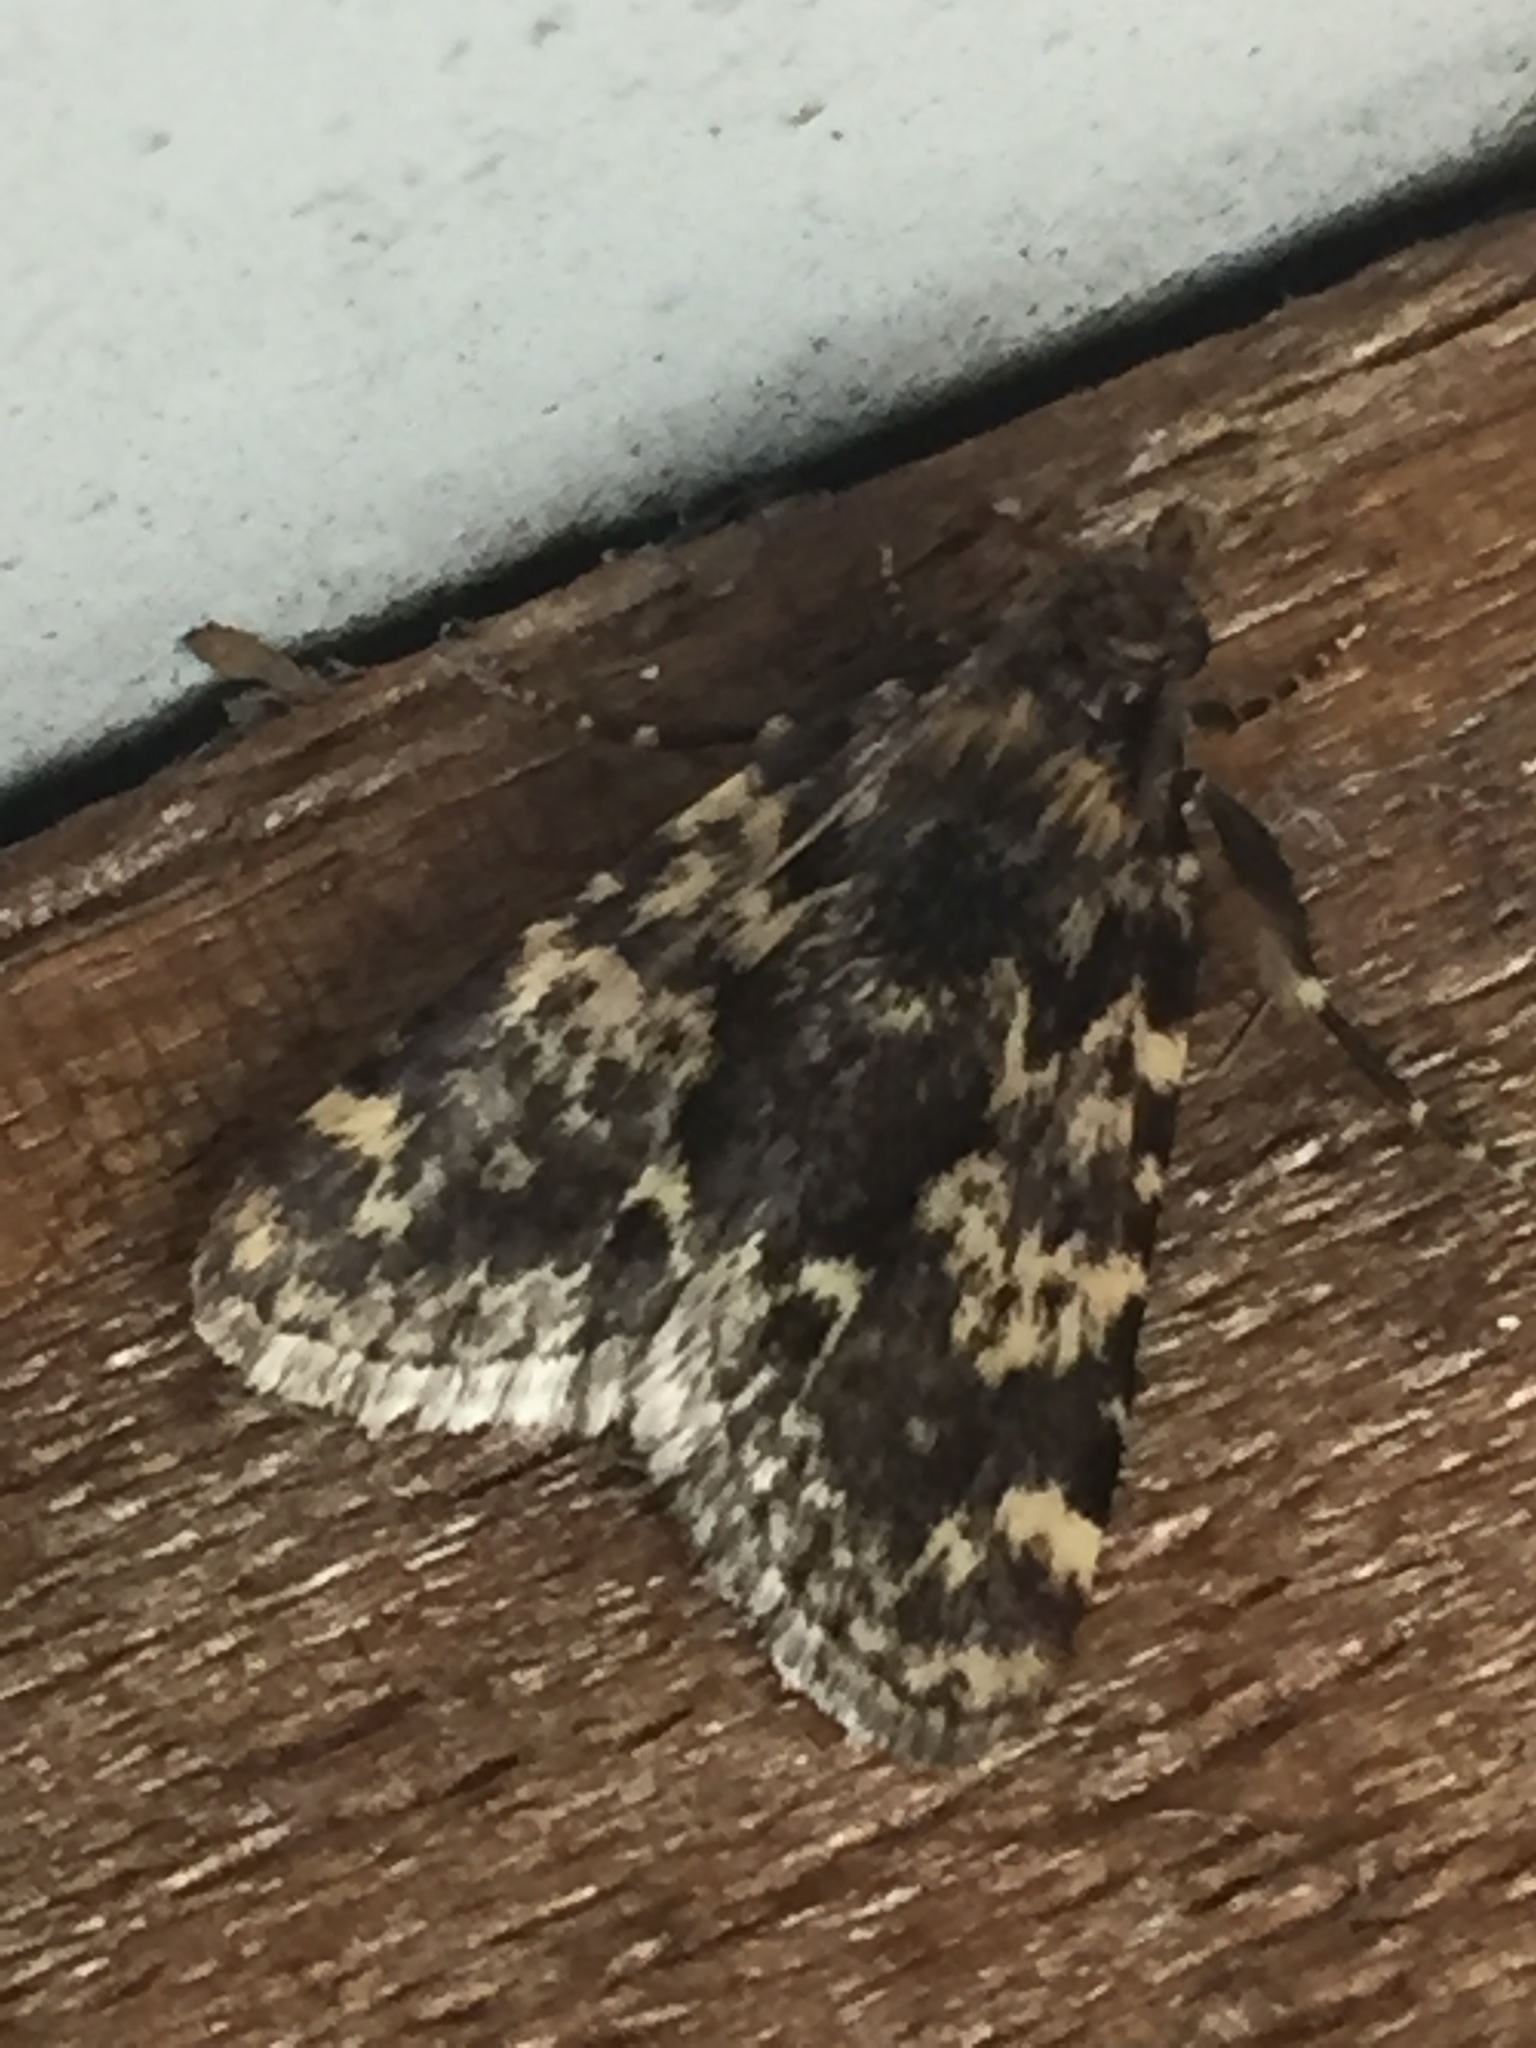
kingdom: Animalia
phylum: Arthropoda
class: Insecta
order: Lepidoptera
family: Pyralidae
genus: Aglossa
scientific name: Aglossa caprealis
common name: Small tabby
